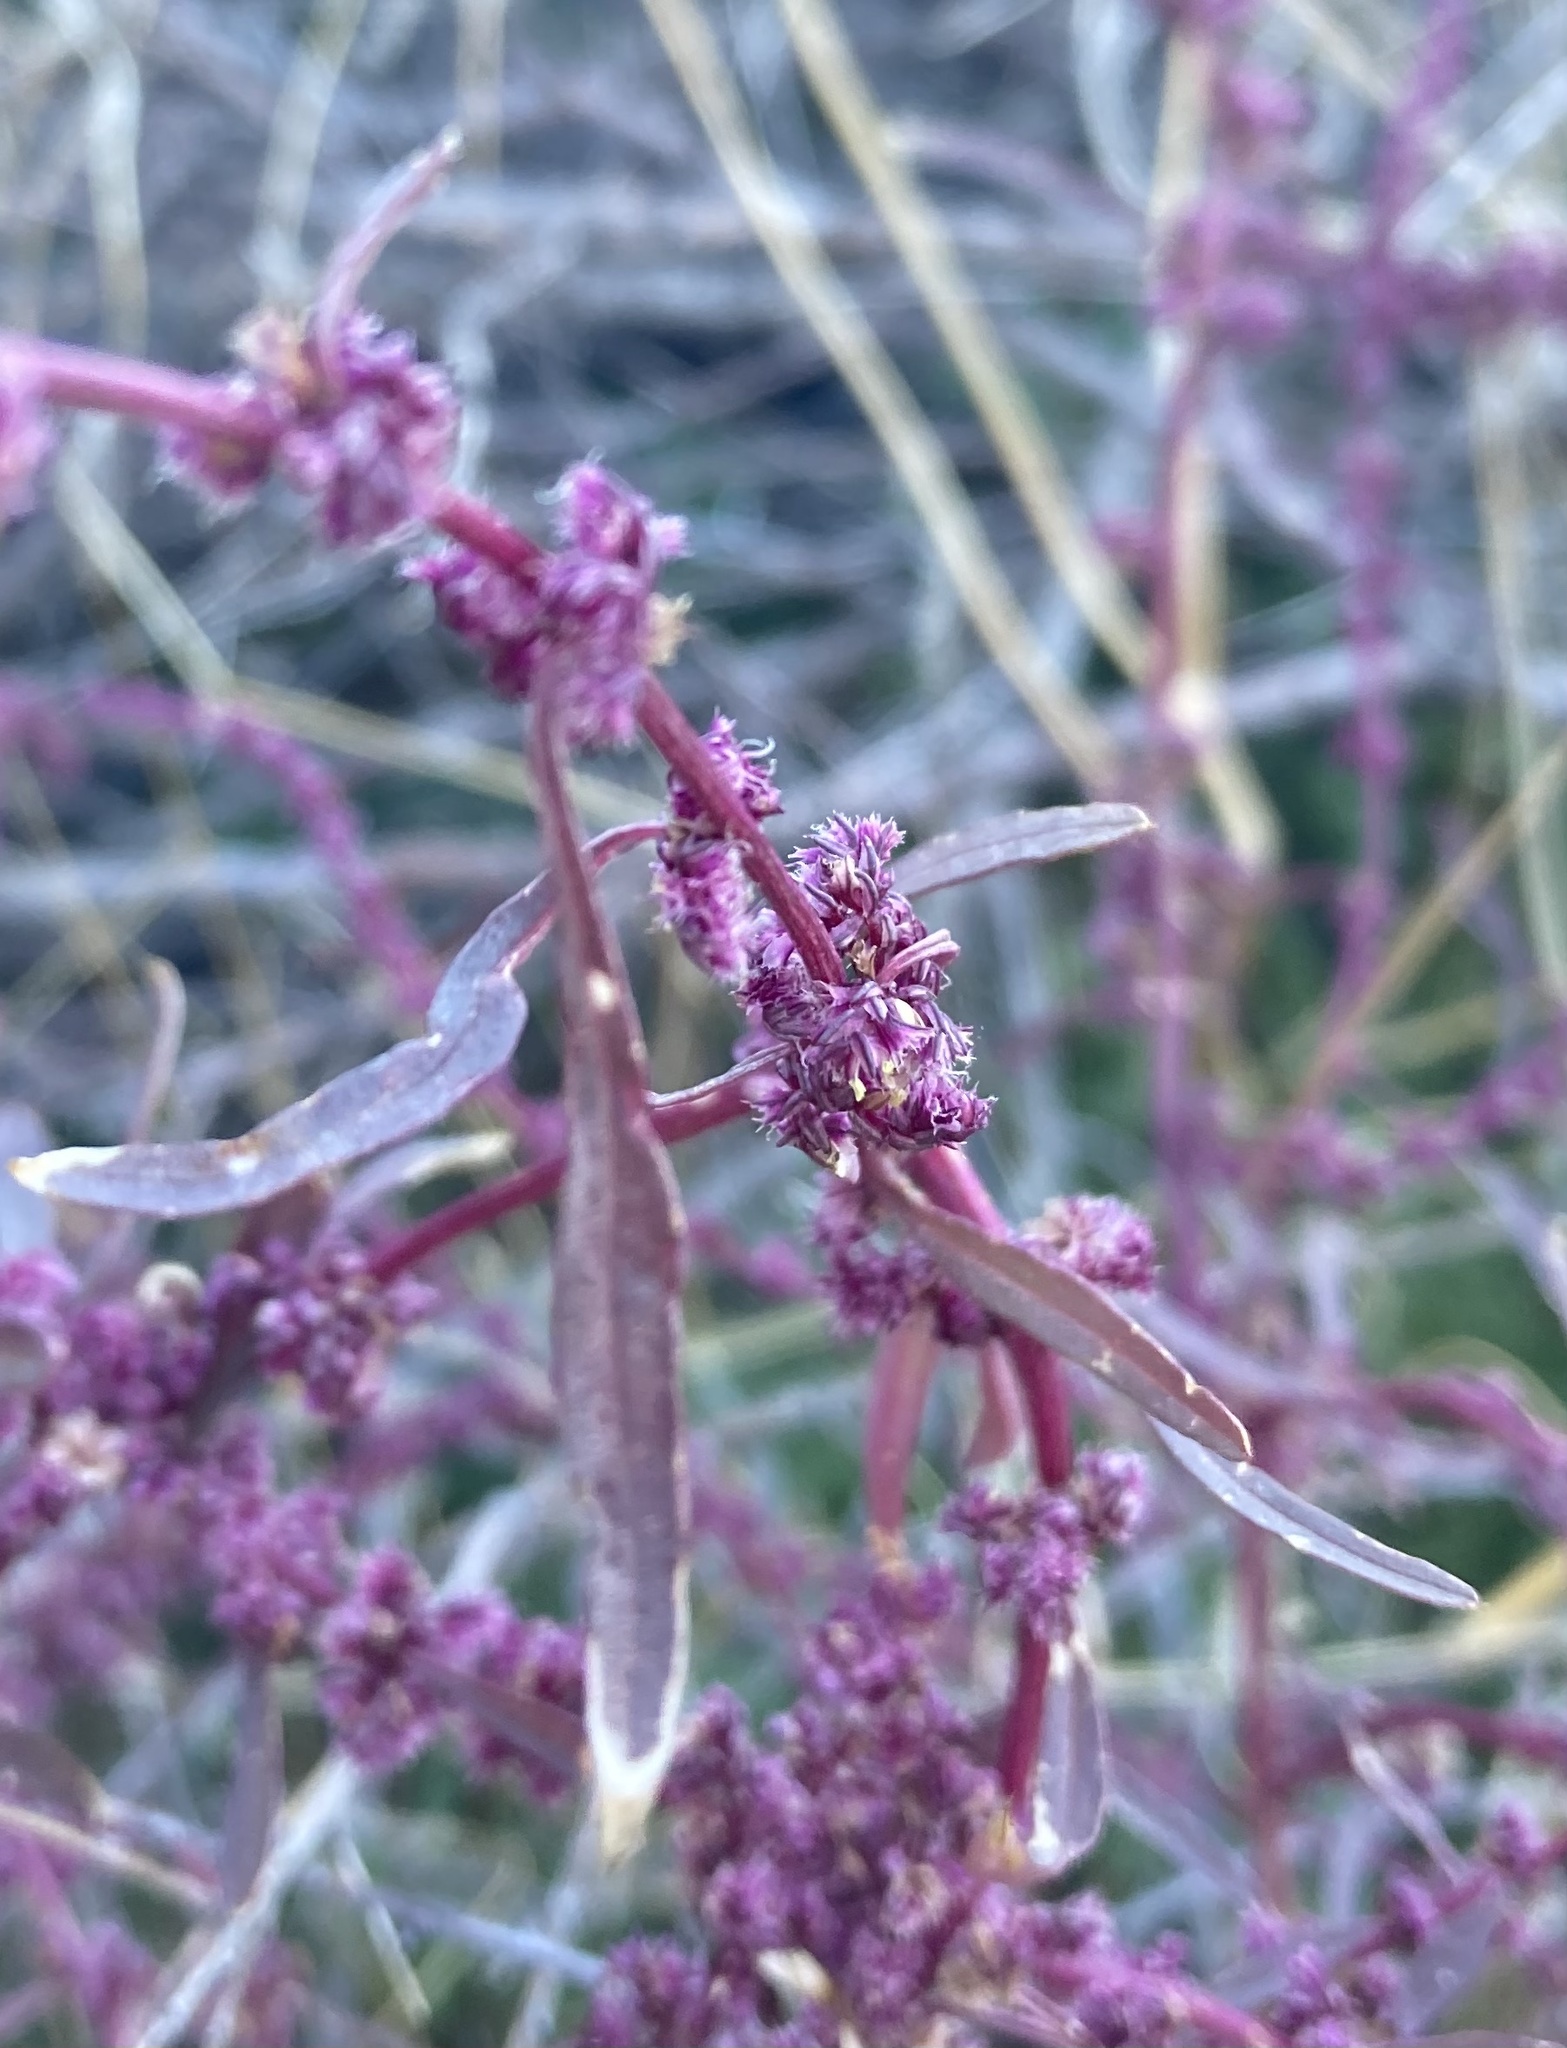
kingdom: Plantae
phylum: Tracheophyta
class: Magnoliopsida
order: Caryophyllales
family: Amaranthaceae
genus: Amaranthus
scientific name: Amaranthus fimbriatus
